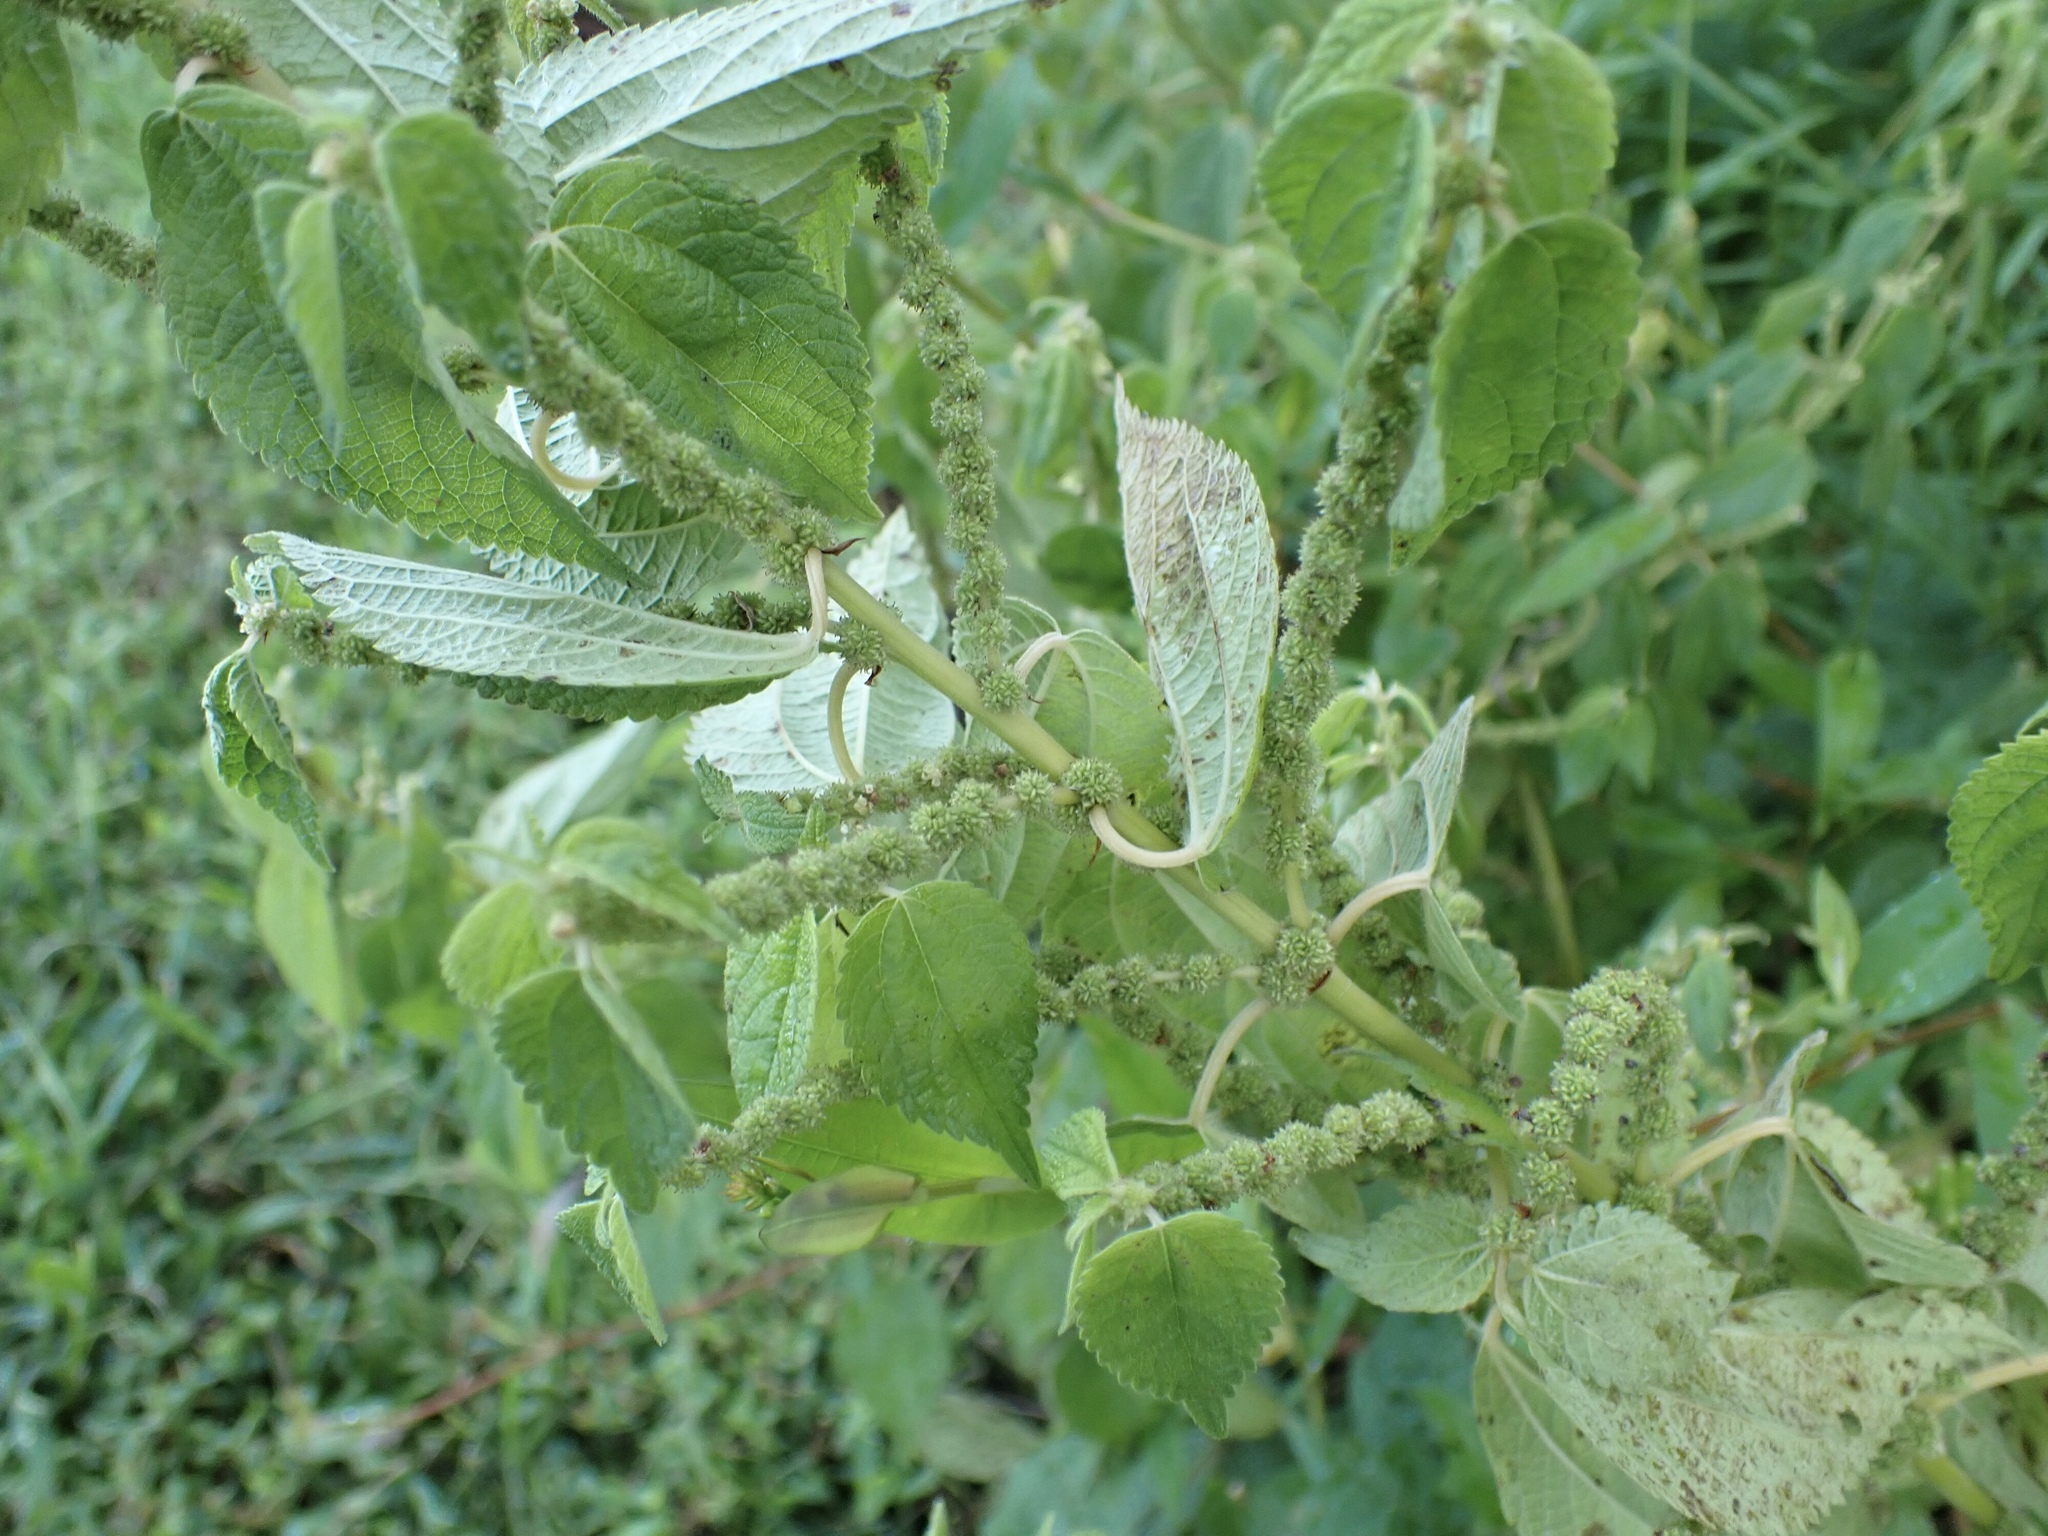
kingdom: Plantae
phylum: Tracheophyta
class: Magnoliopsida
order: Rosales
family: Urticaceae
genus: Boehmeria
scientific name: Boehmeria cylindrica
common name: Bog-hemp
